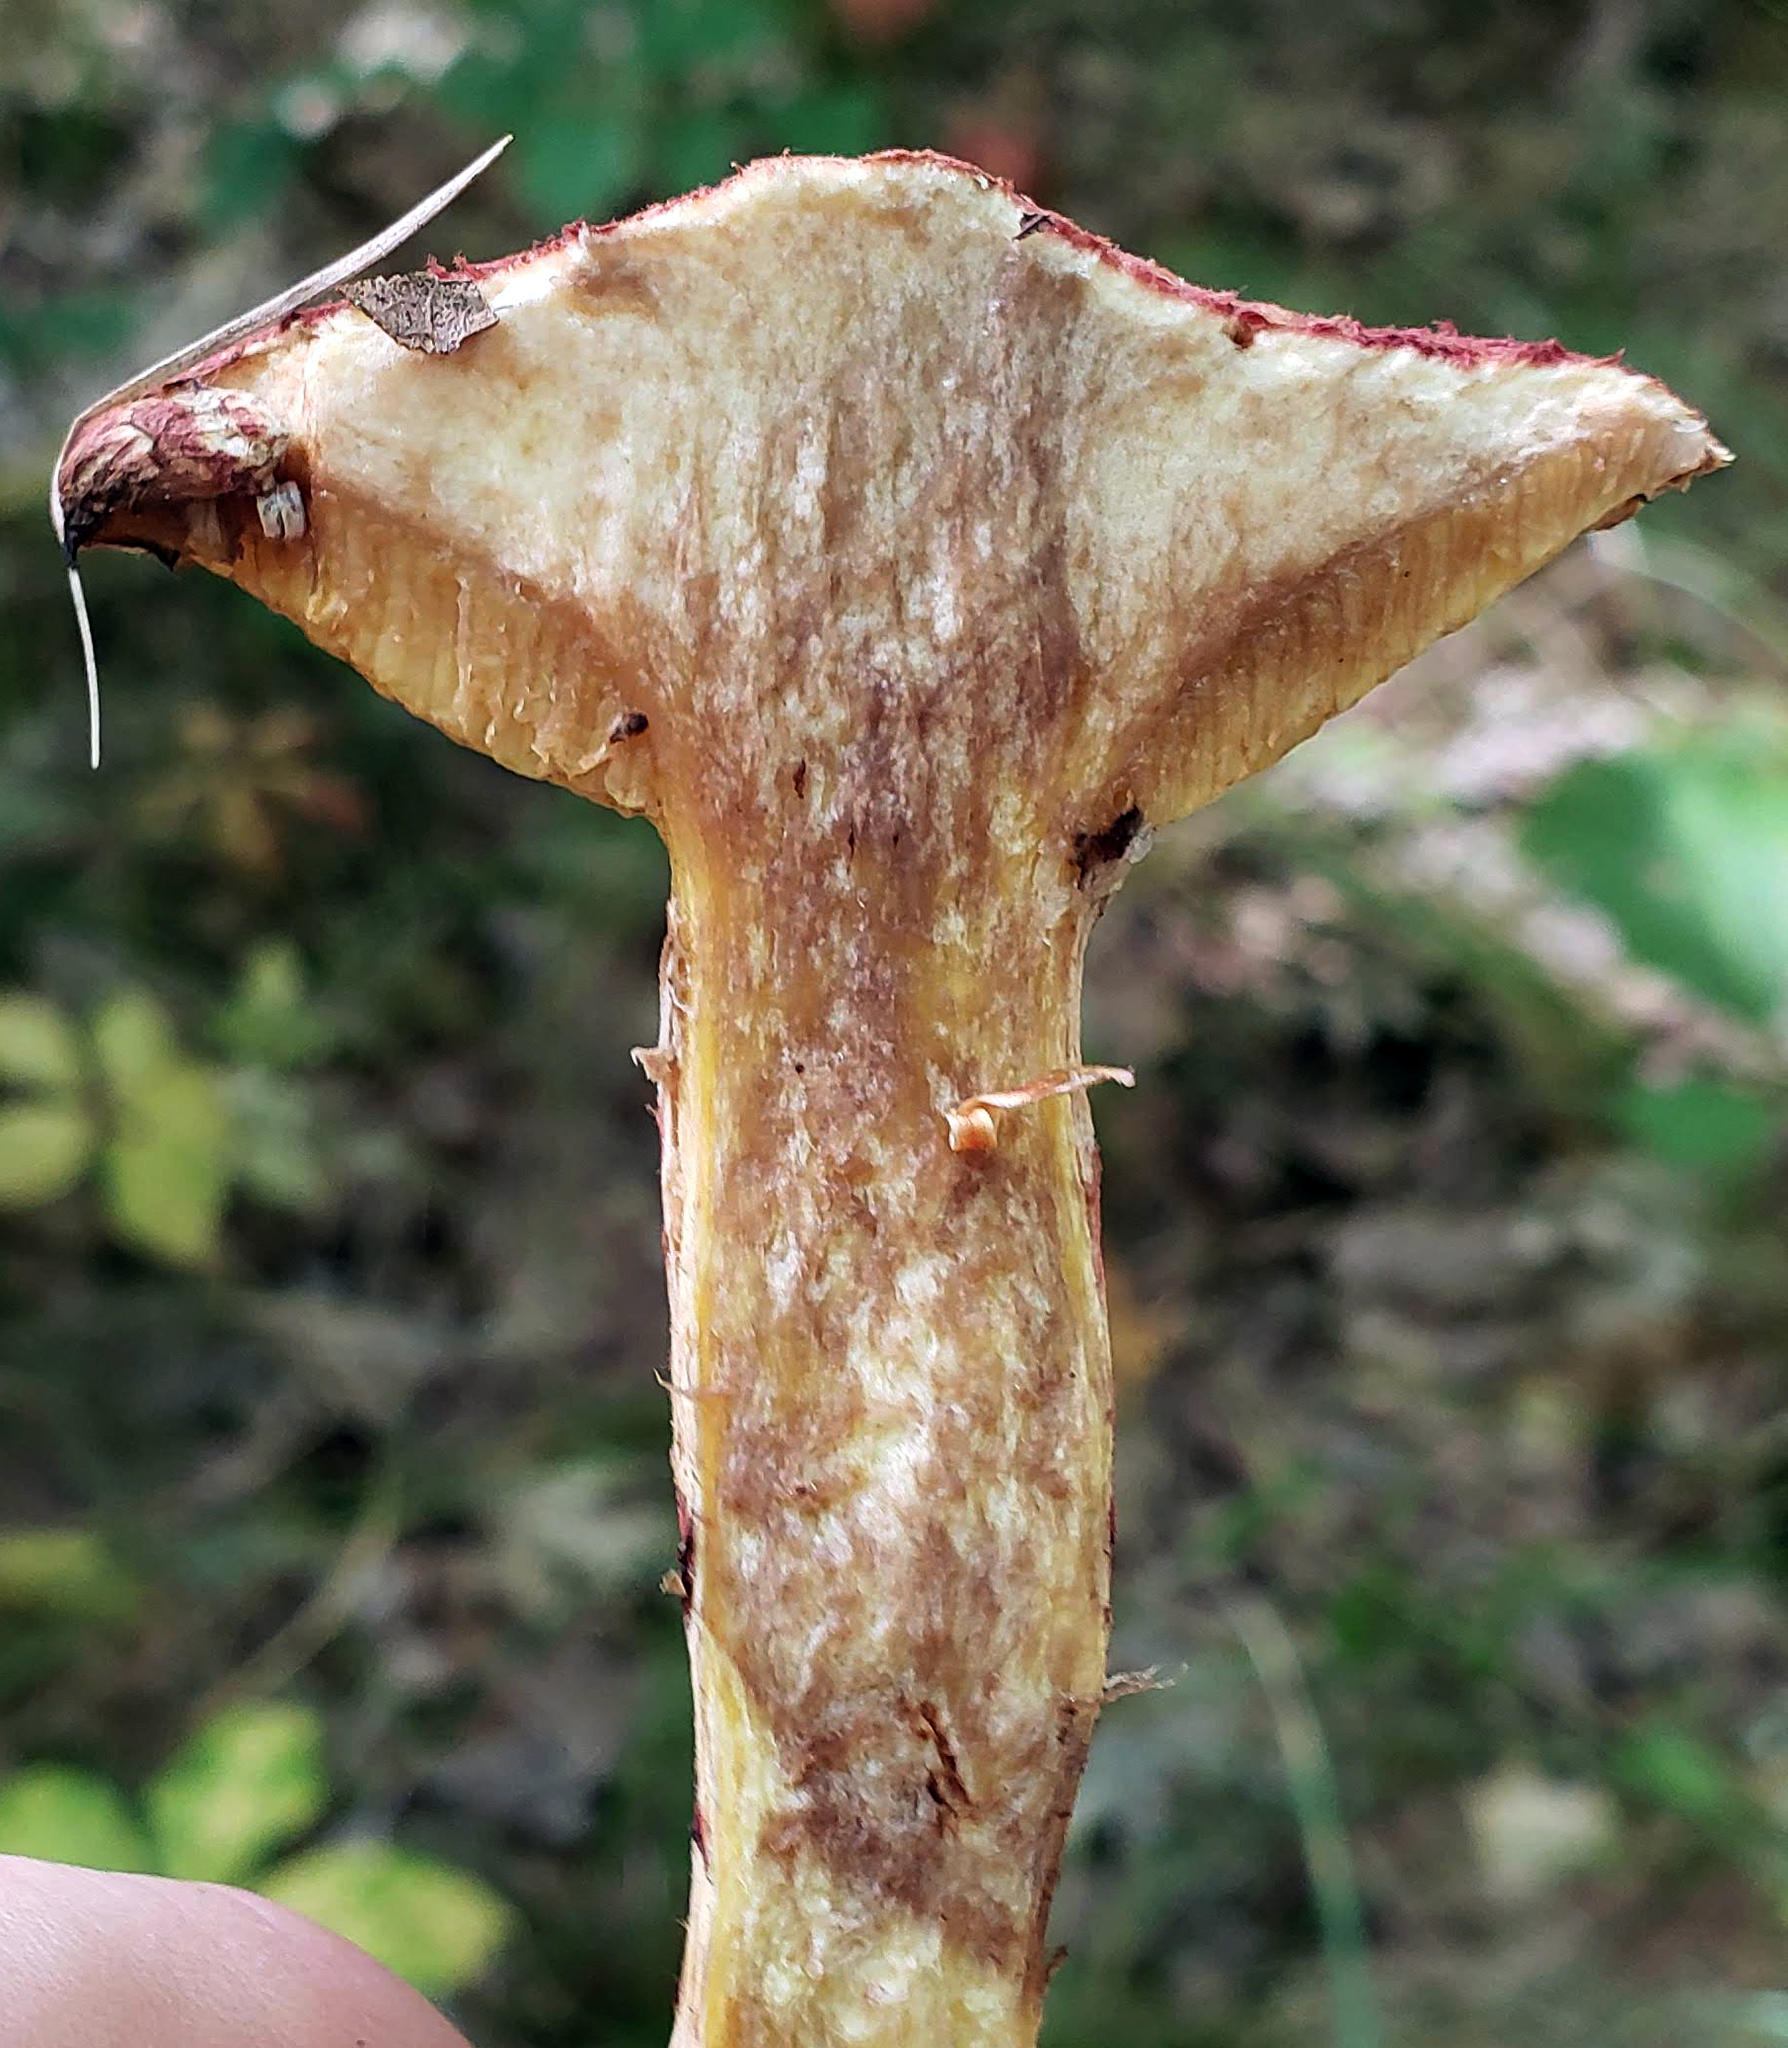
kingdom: Fungi
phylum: Basidiomycota
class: Agaricomycetes
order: Boletales
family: Suillaceae
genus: Suillus
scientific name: Suillus spraguei
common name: Painted suillus
